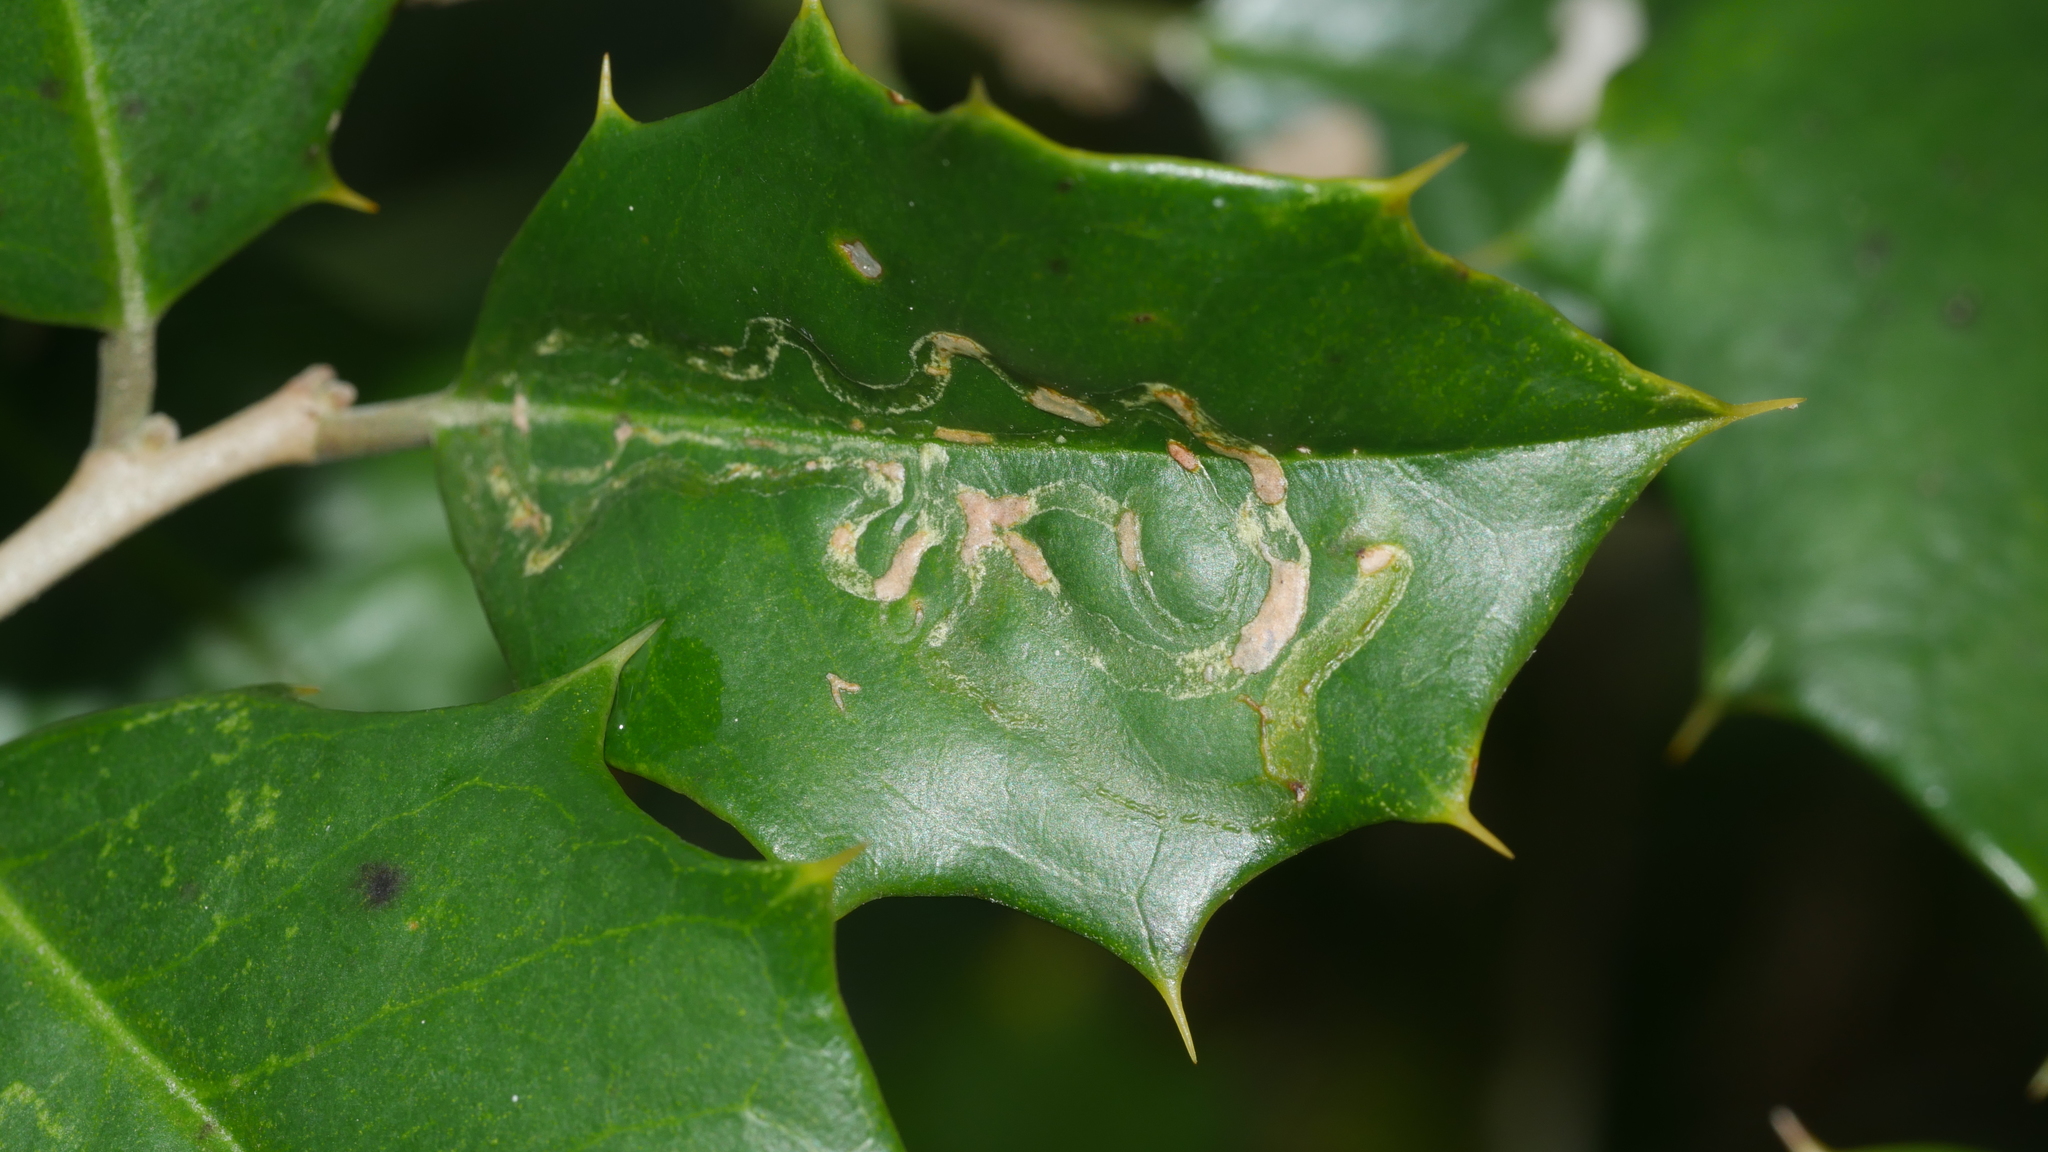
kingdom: Animalia
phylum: Arthropoda
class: Insecta
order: Diptera
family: Agromyzidae
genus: Phytomyza
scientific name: Phytomyza opacae
